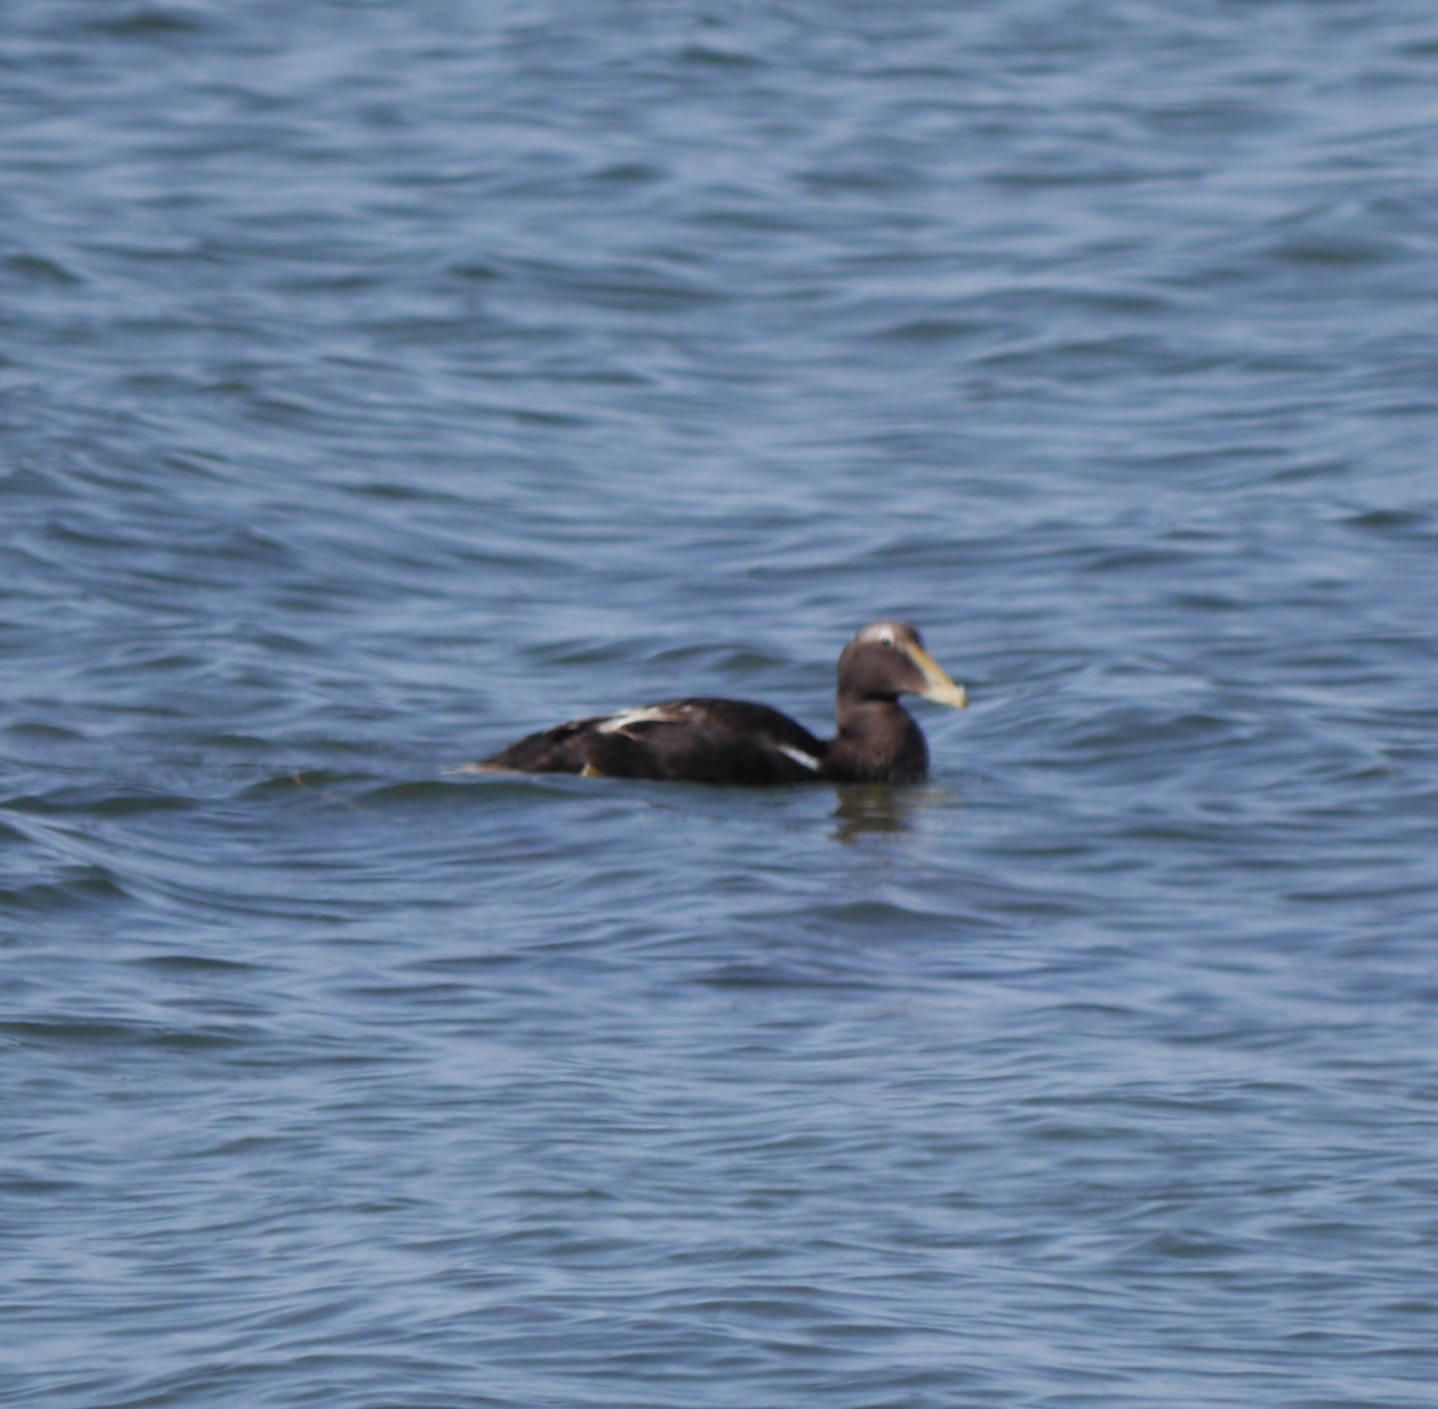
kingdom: Animalia
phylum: Chordata
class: Aves
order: Anseriformes
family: Anatidae
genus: Somateria
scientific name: Somateria mollissima
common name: Common eider
